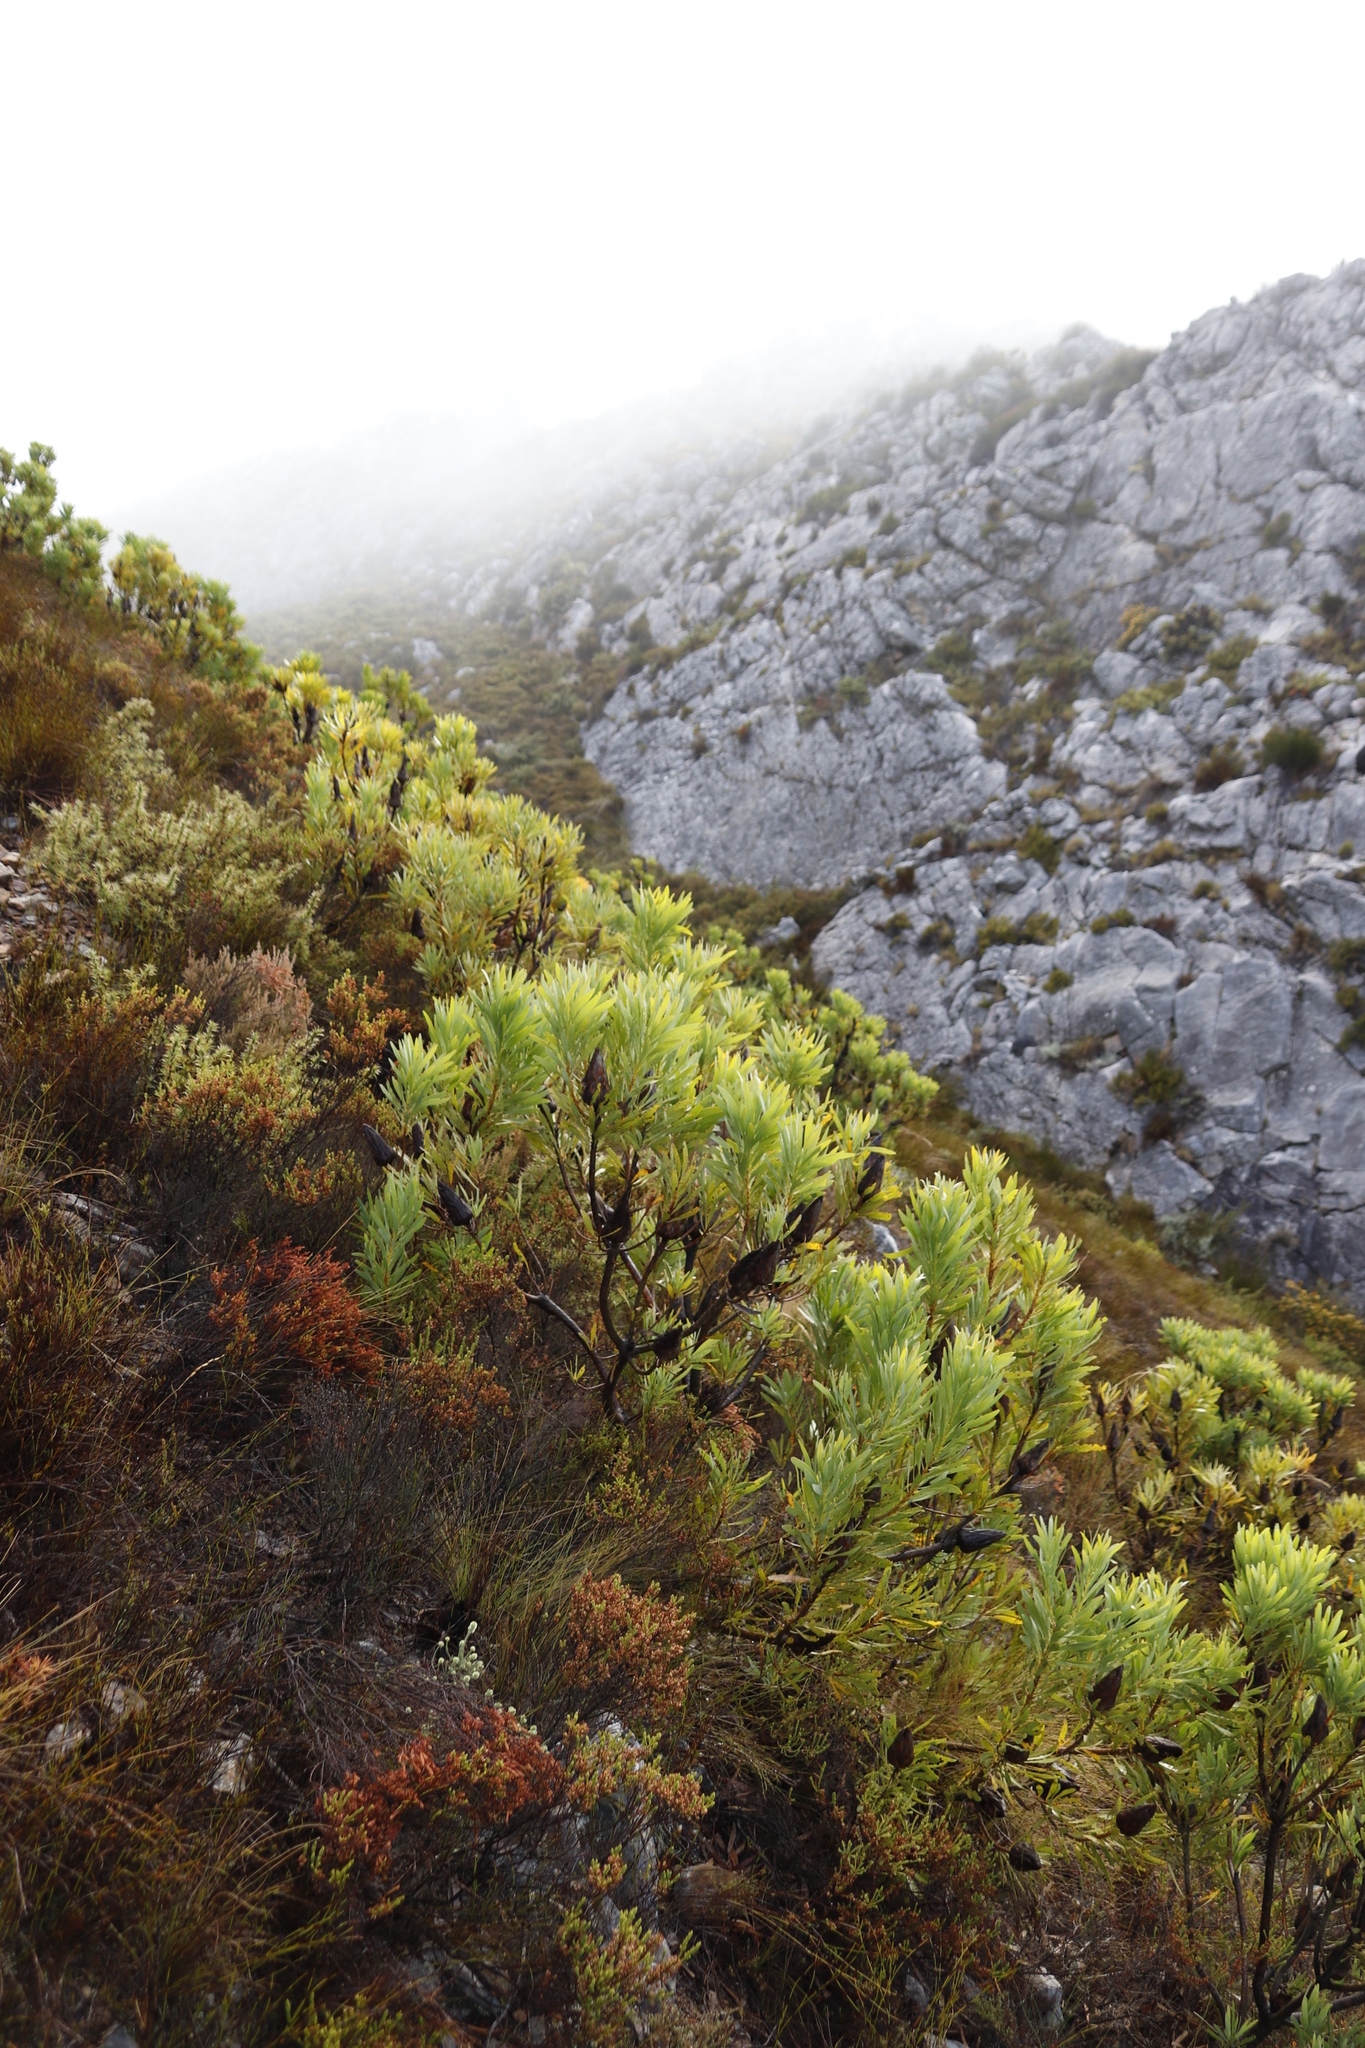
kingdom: Plantae
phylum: Tracheophyta
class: Magnoliopsida
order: Proteales
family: Proteaceae
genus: Protea
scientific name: Protea repens
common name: Sugarbush
